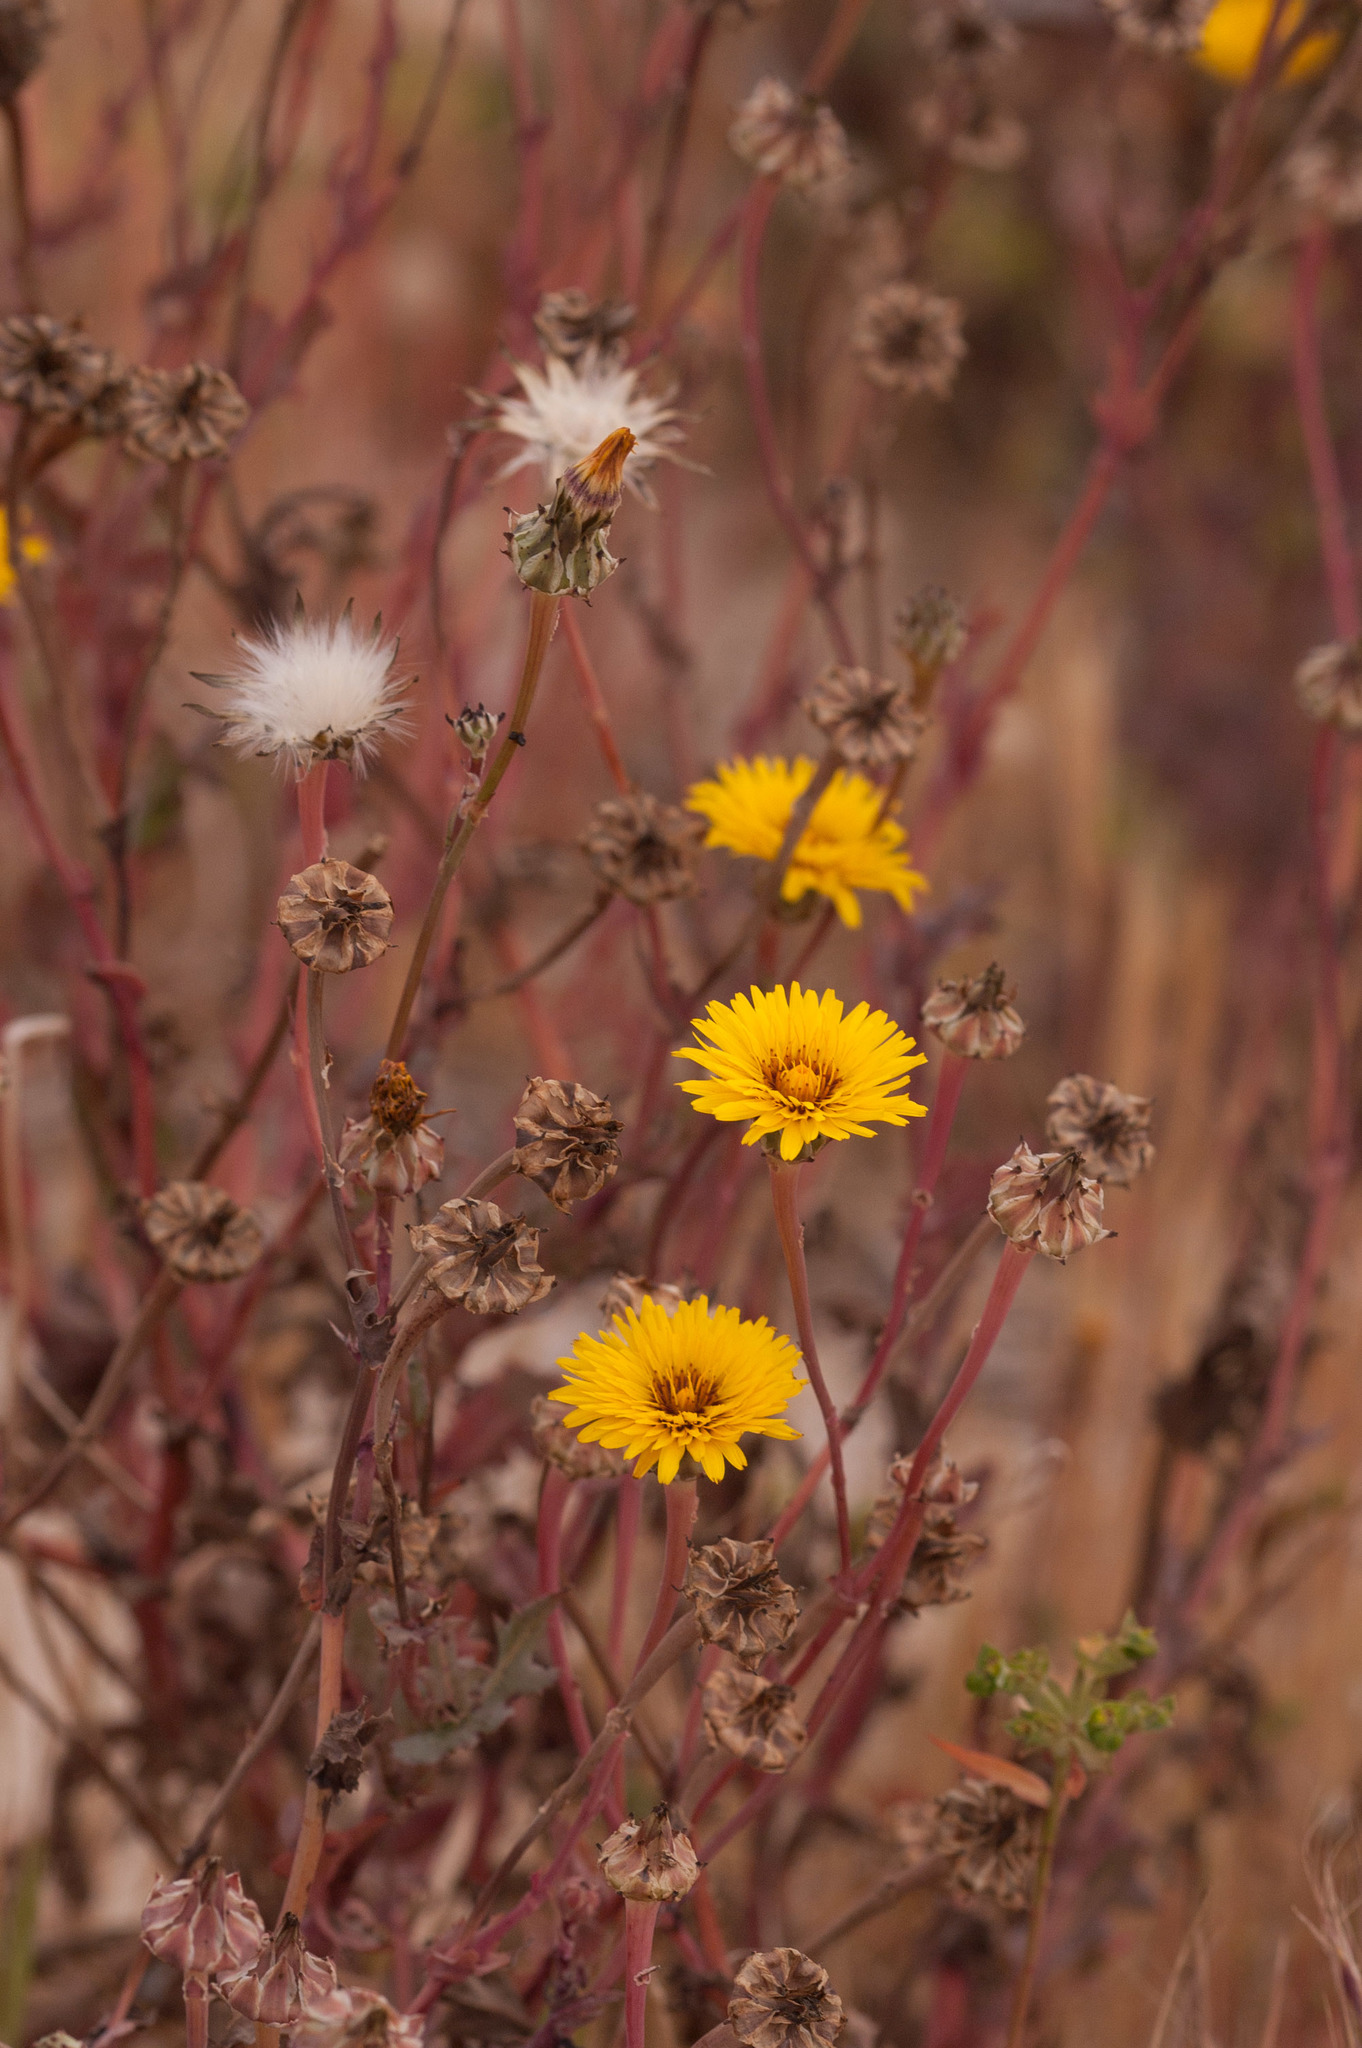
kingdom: Plantae
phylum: Tracheophyta
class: Magnoliopsida
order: Asterales
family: Asteraceae
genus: Reichardia
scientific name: Reichardia tingitana
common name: Reichardia
